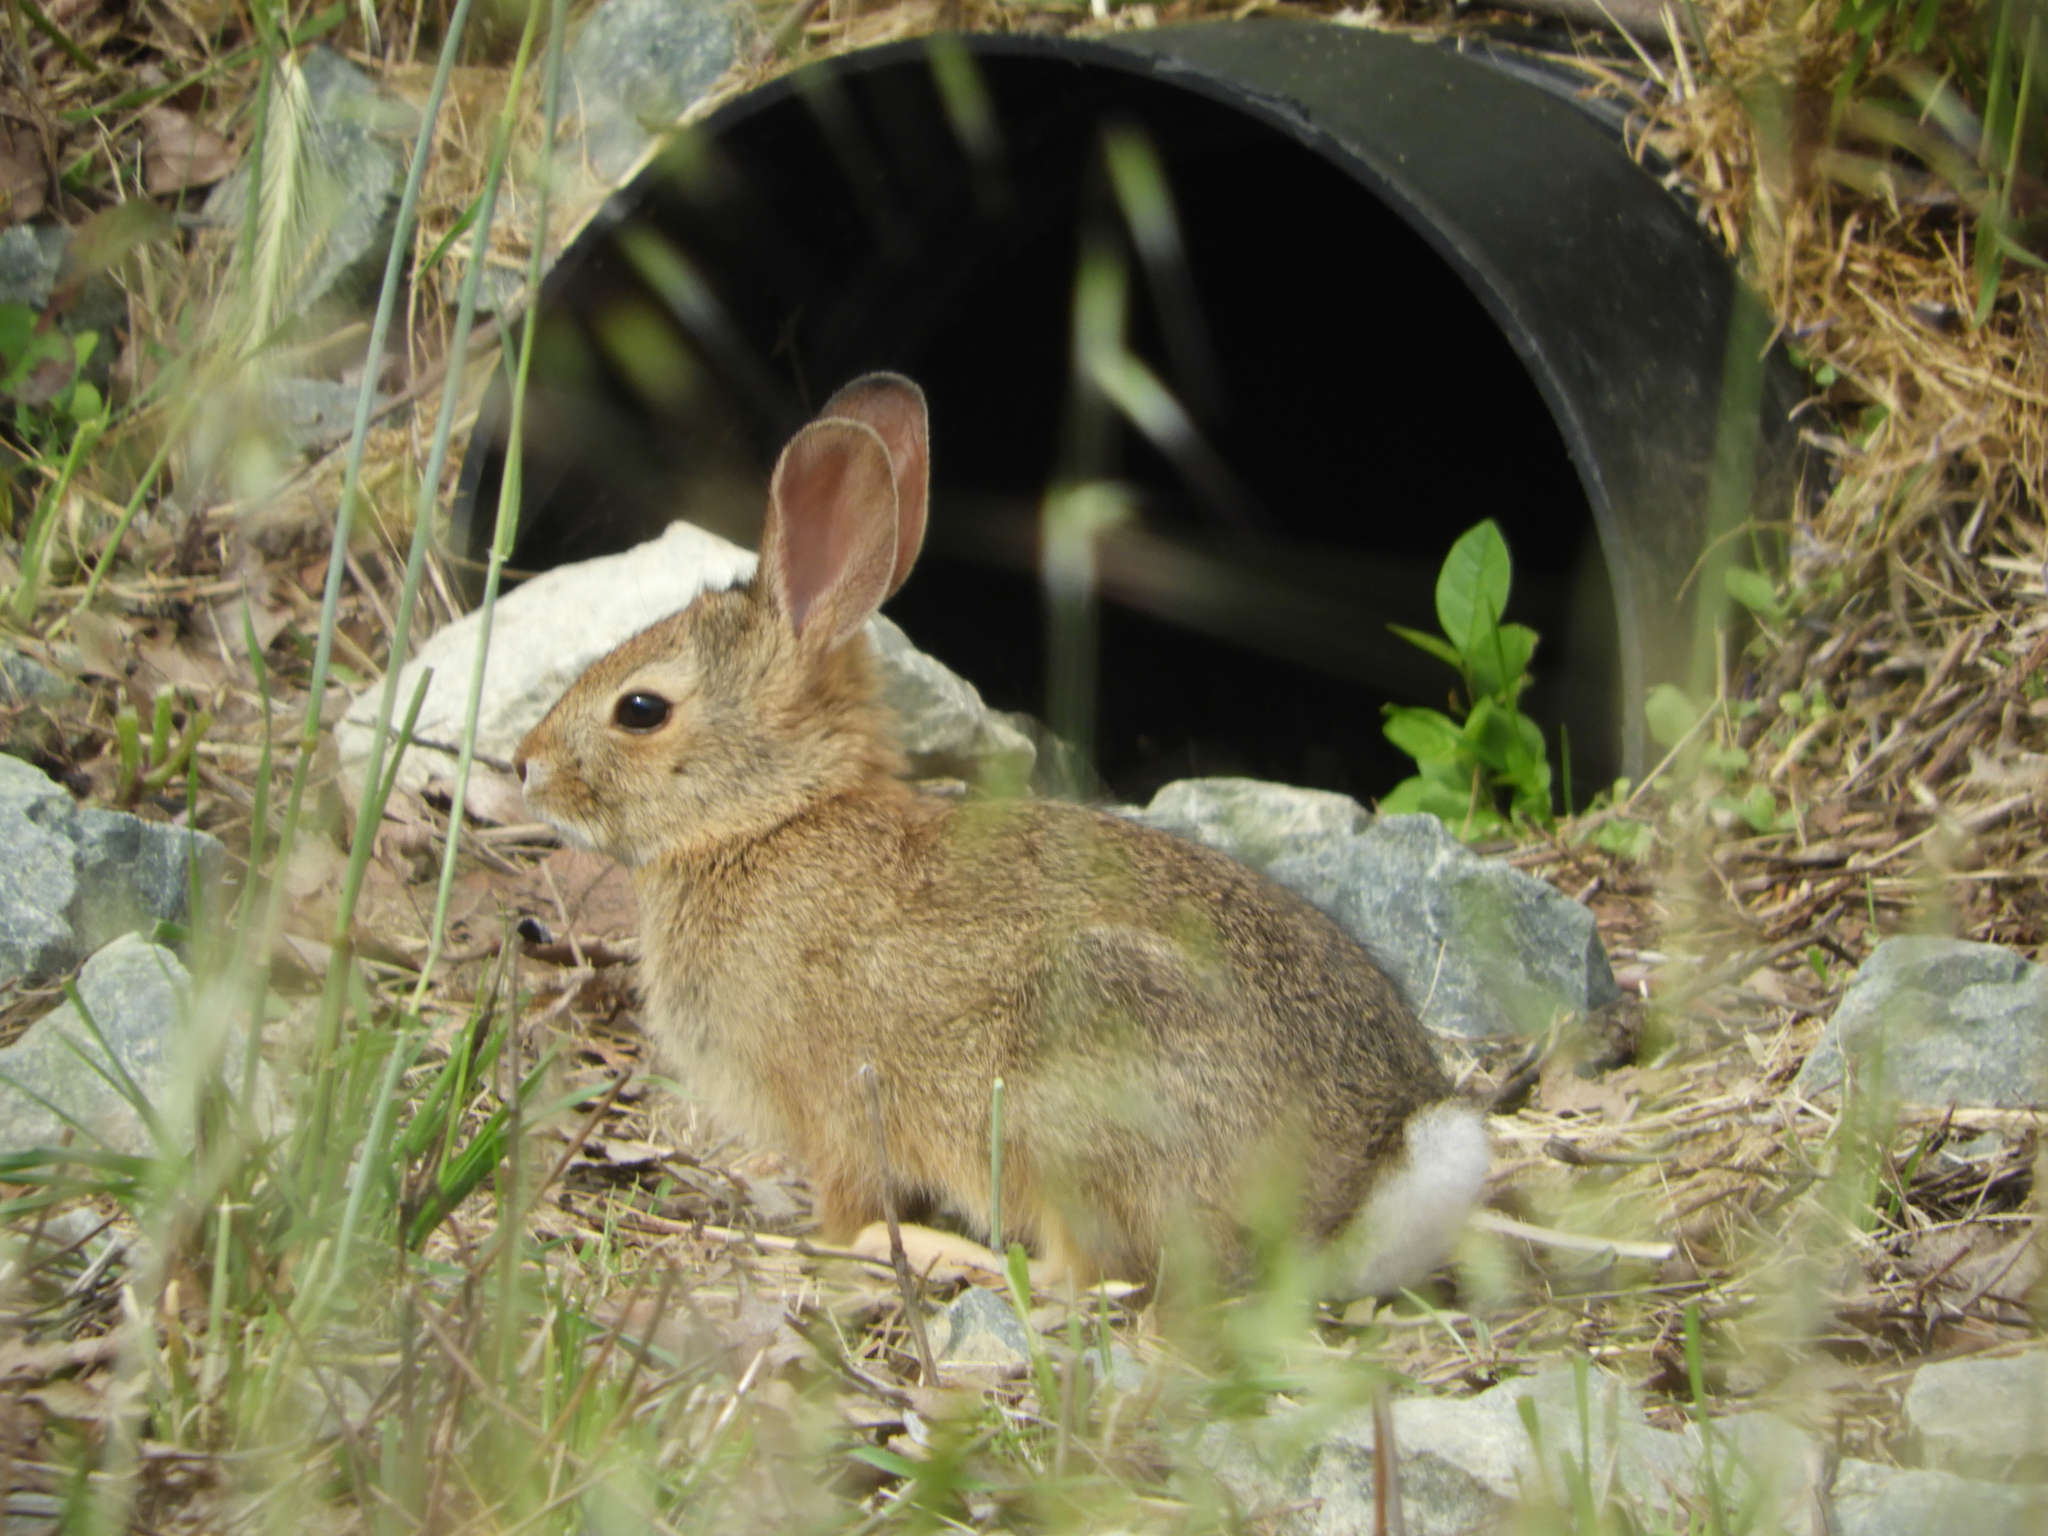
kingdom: Animalia
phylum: Chordata
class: Mammalia
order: Lagomorpha
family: Leporidae
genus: Sylvilagus
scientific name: Sylvilagus audubonii
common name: Desert cottontail
